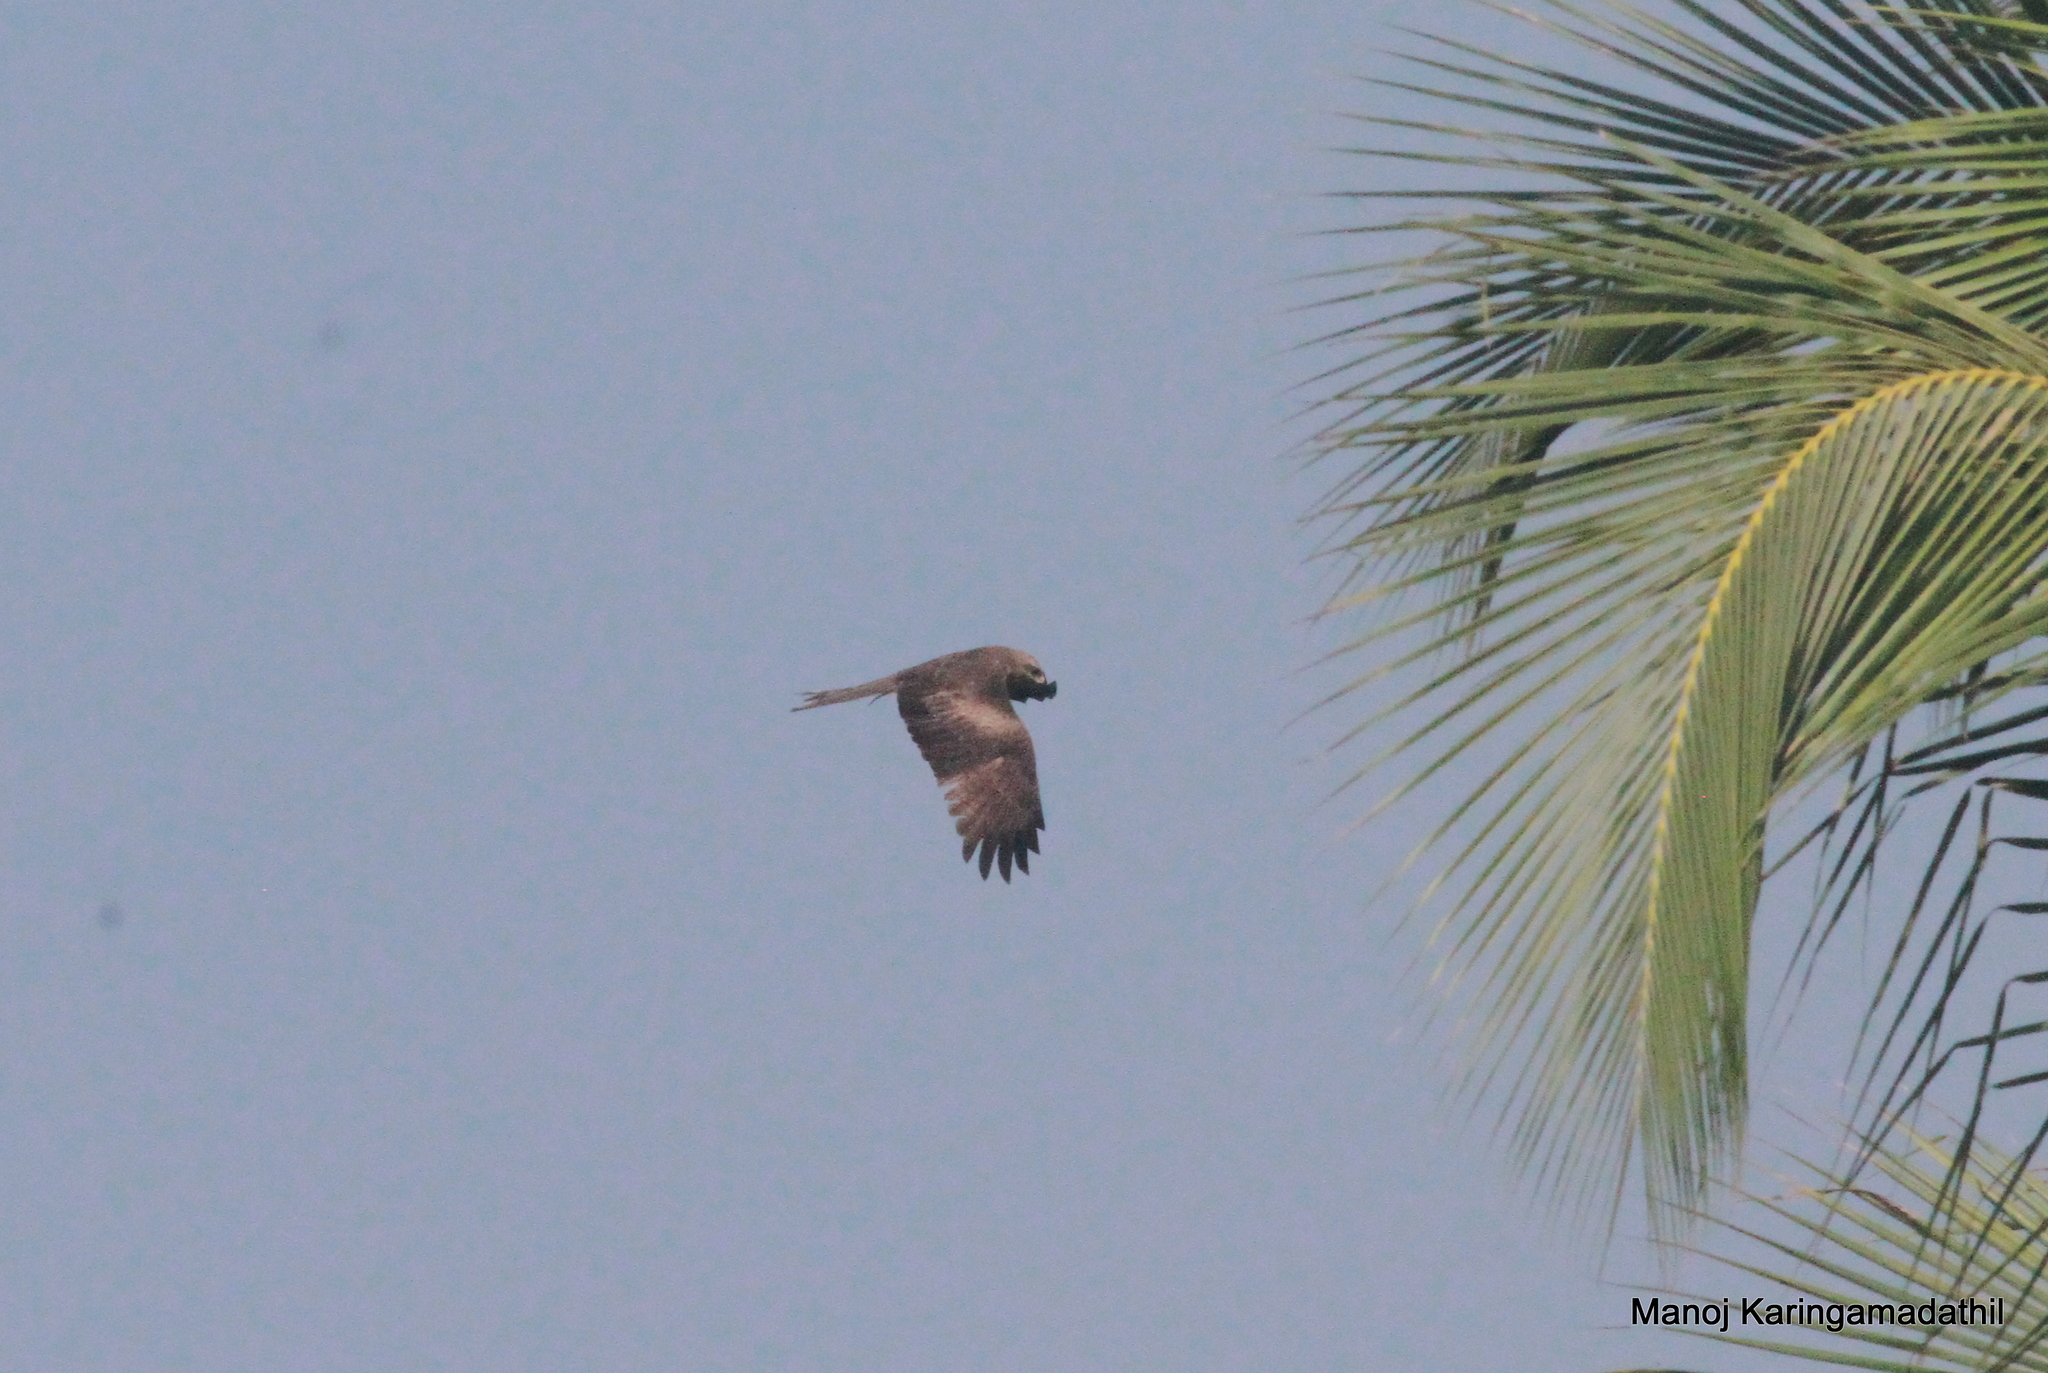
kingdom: Animalia
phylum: Chordata
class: Aves
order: Accipitriformes
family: Accipitridae
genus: Milvus
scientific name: Milvus migrans
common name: Black kite
